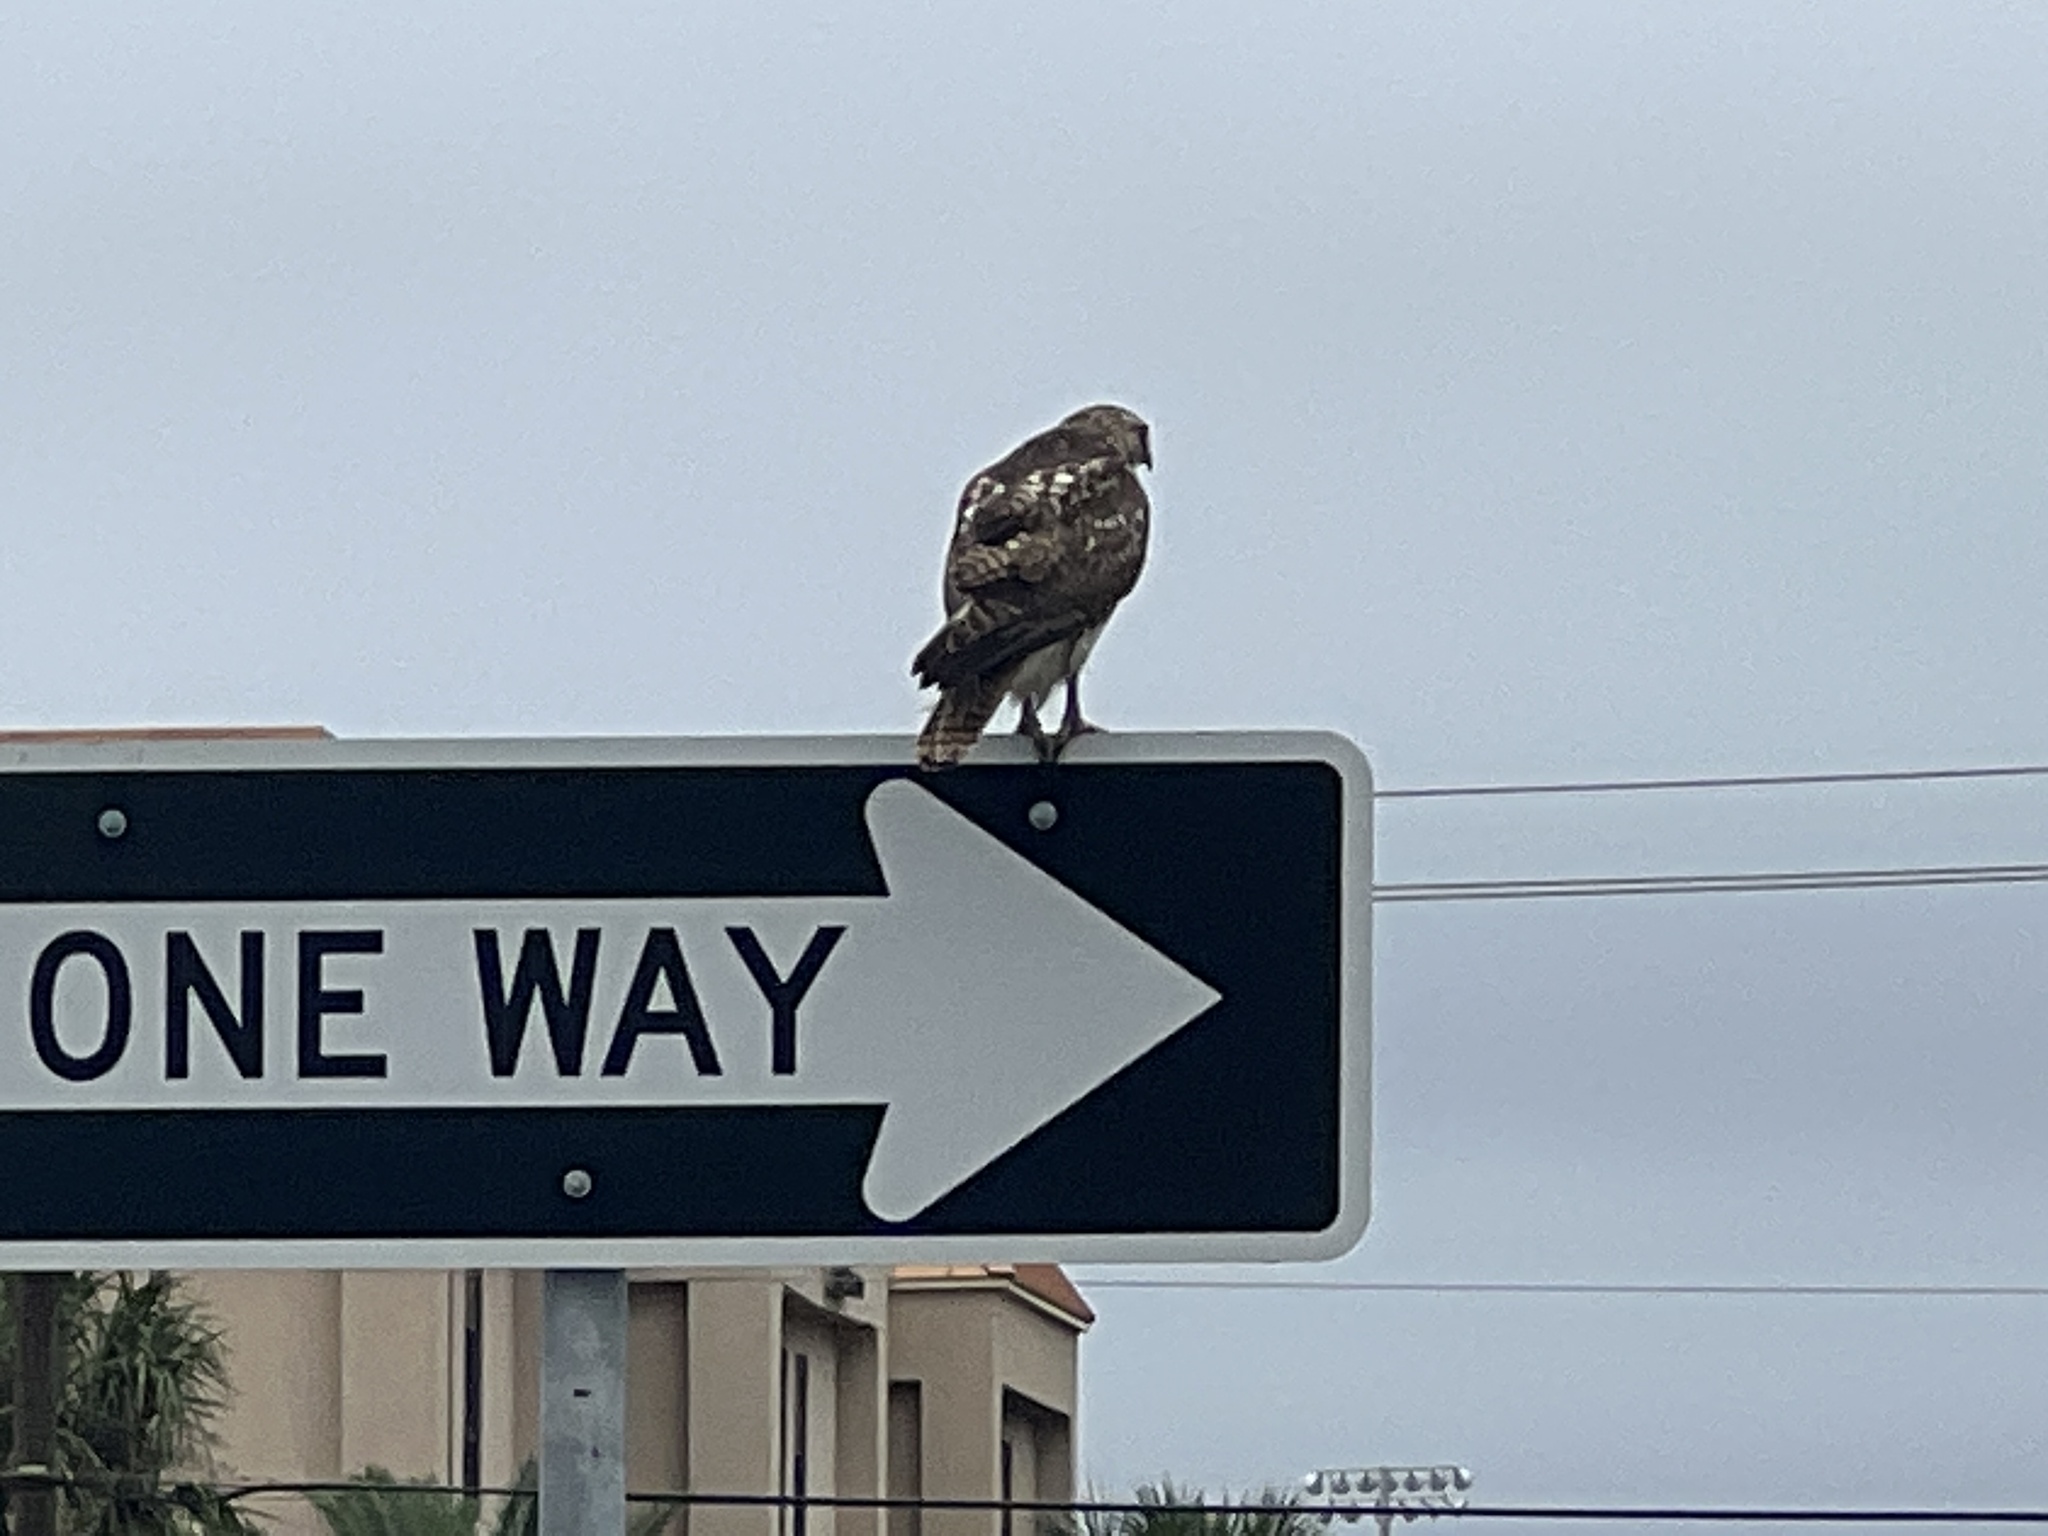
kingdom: Animalia
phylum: Chordata
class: Aves
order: Accipitriformes
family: Accipitridae
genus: Buteo
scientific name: Buteo jamaicensis
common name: Red-tailed hawk
